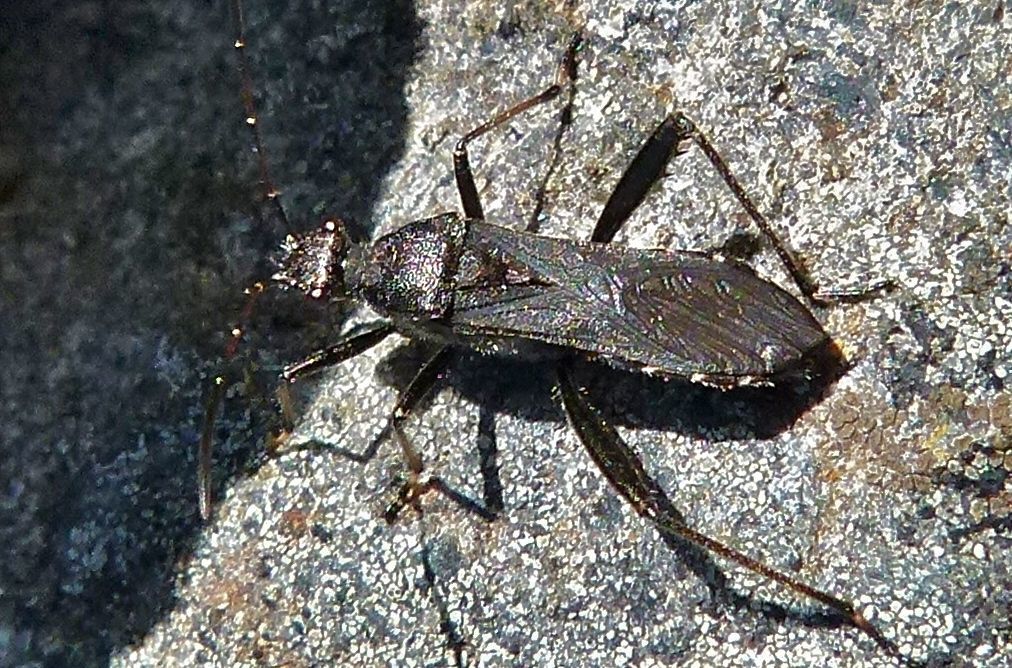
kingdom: Animalia
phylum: Arthropoda
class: Insecta
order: Hemiptera
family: Alydidae
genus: Alydus
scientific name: Alydus eurinus
